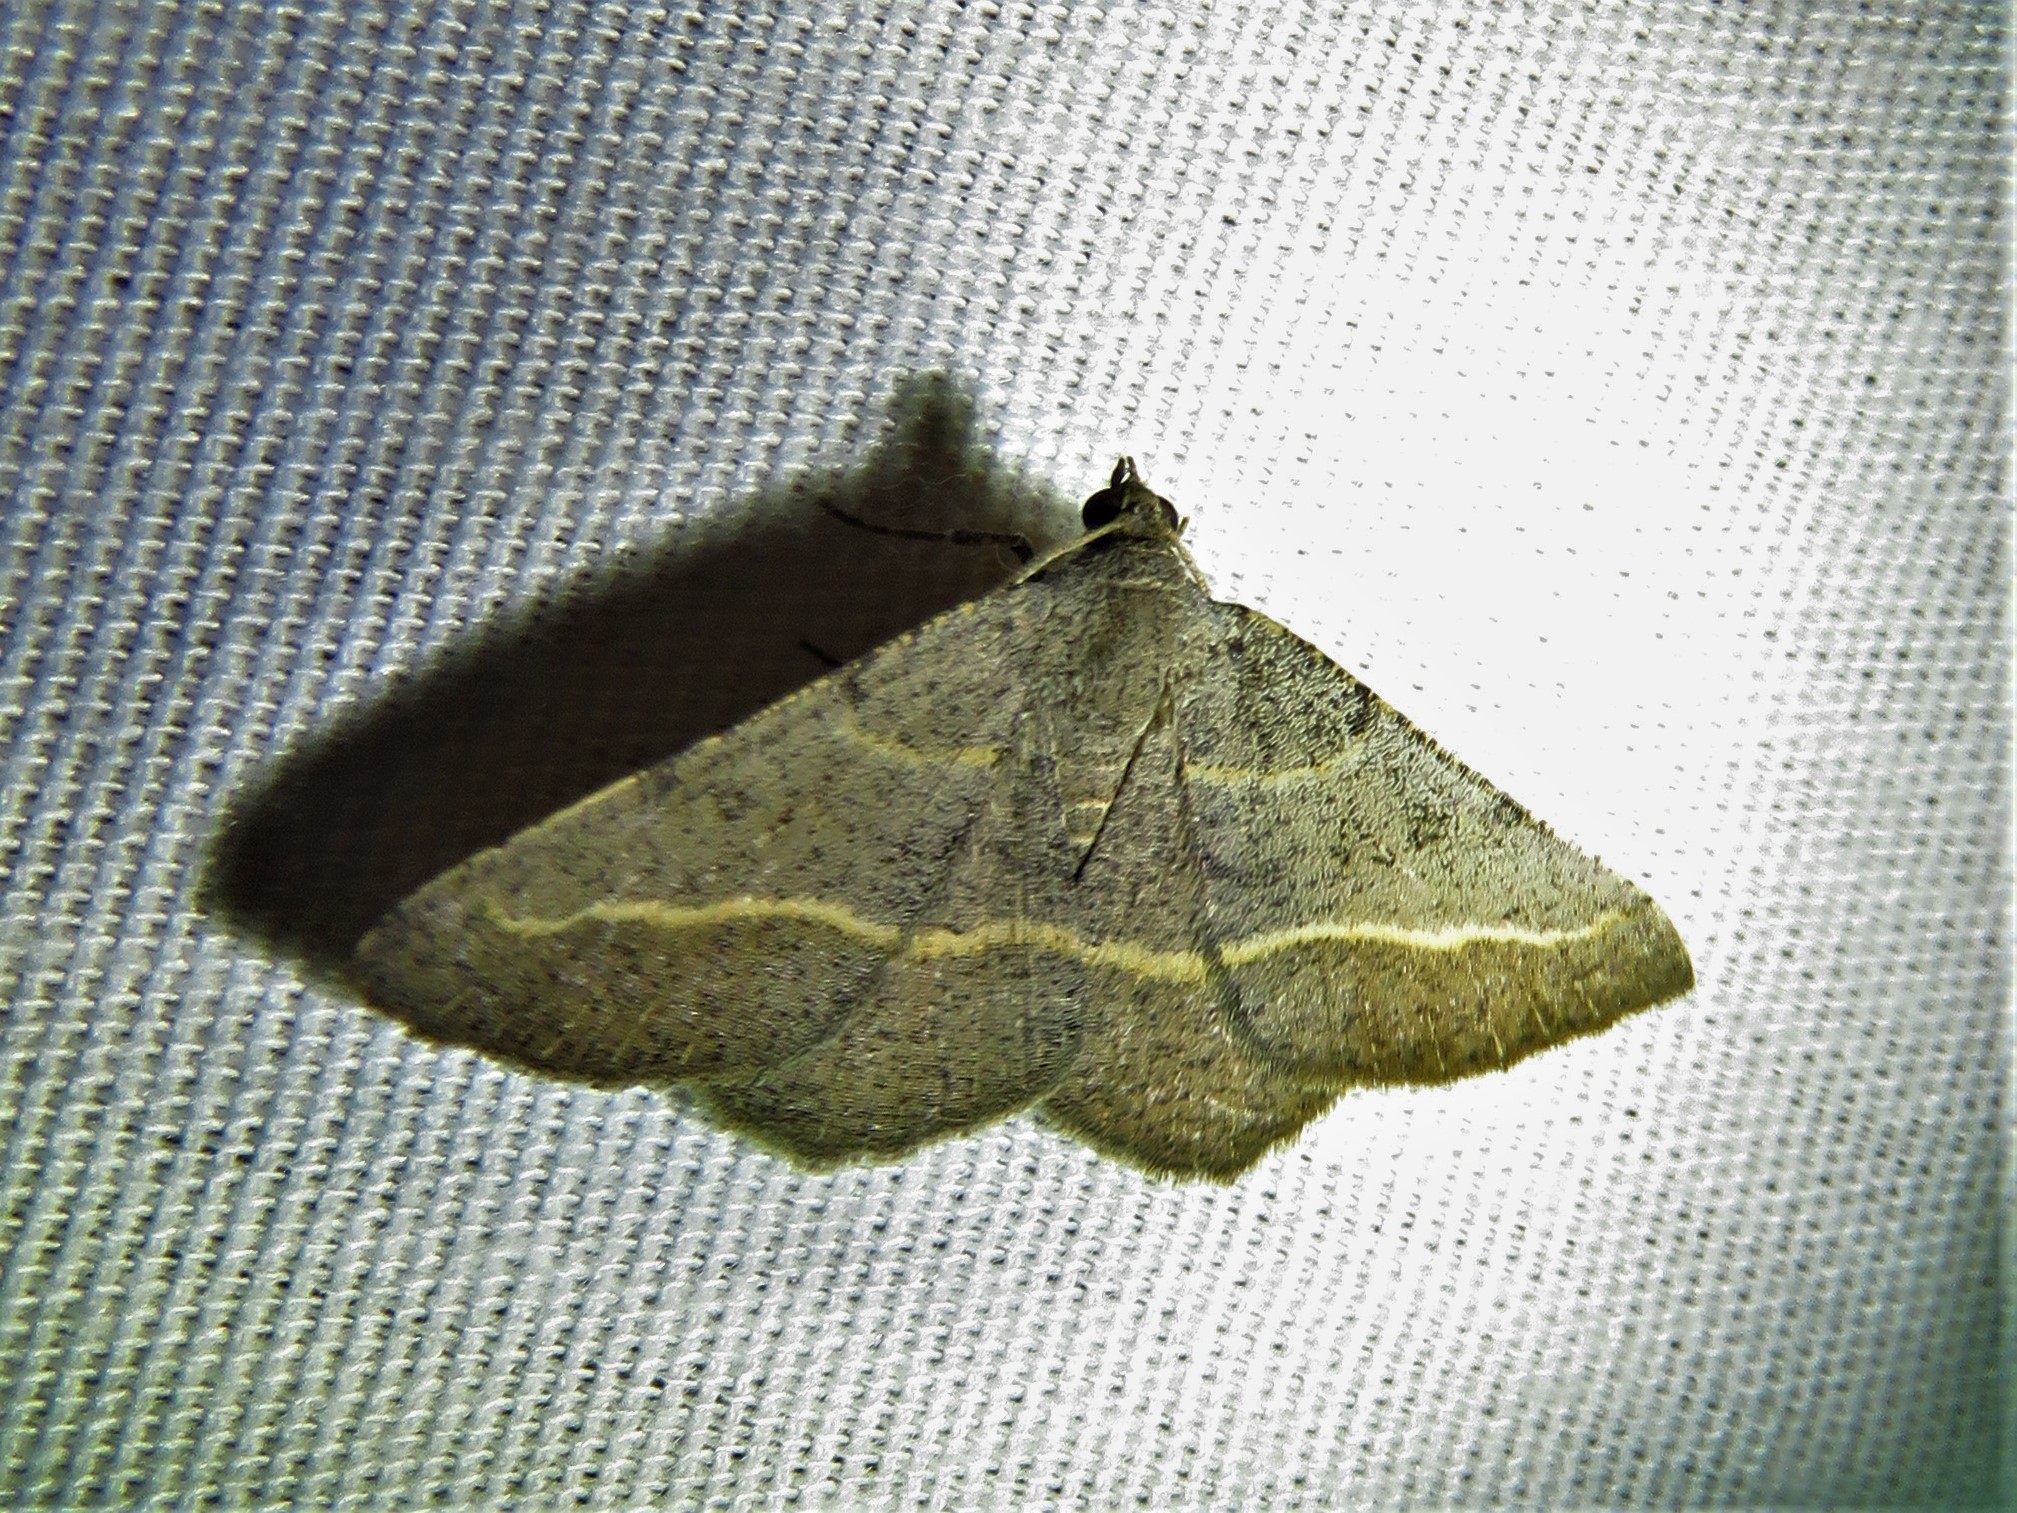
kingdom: Animalia
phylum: Arthropoda
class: Insecta
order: Lepidoptera
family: Geometridae
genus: Digrammia
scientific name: Digrammia irrorata
